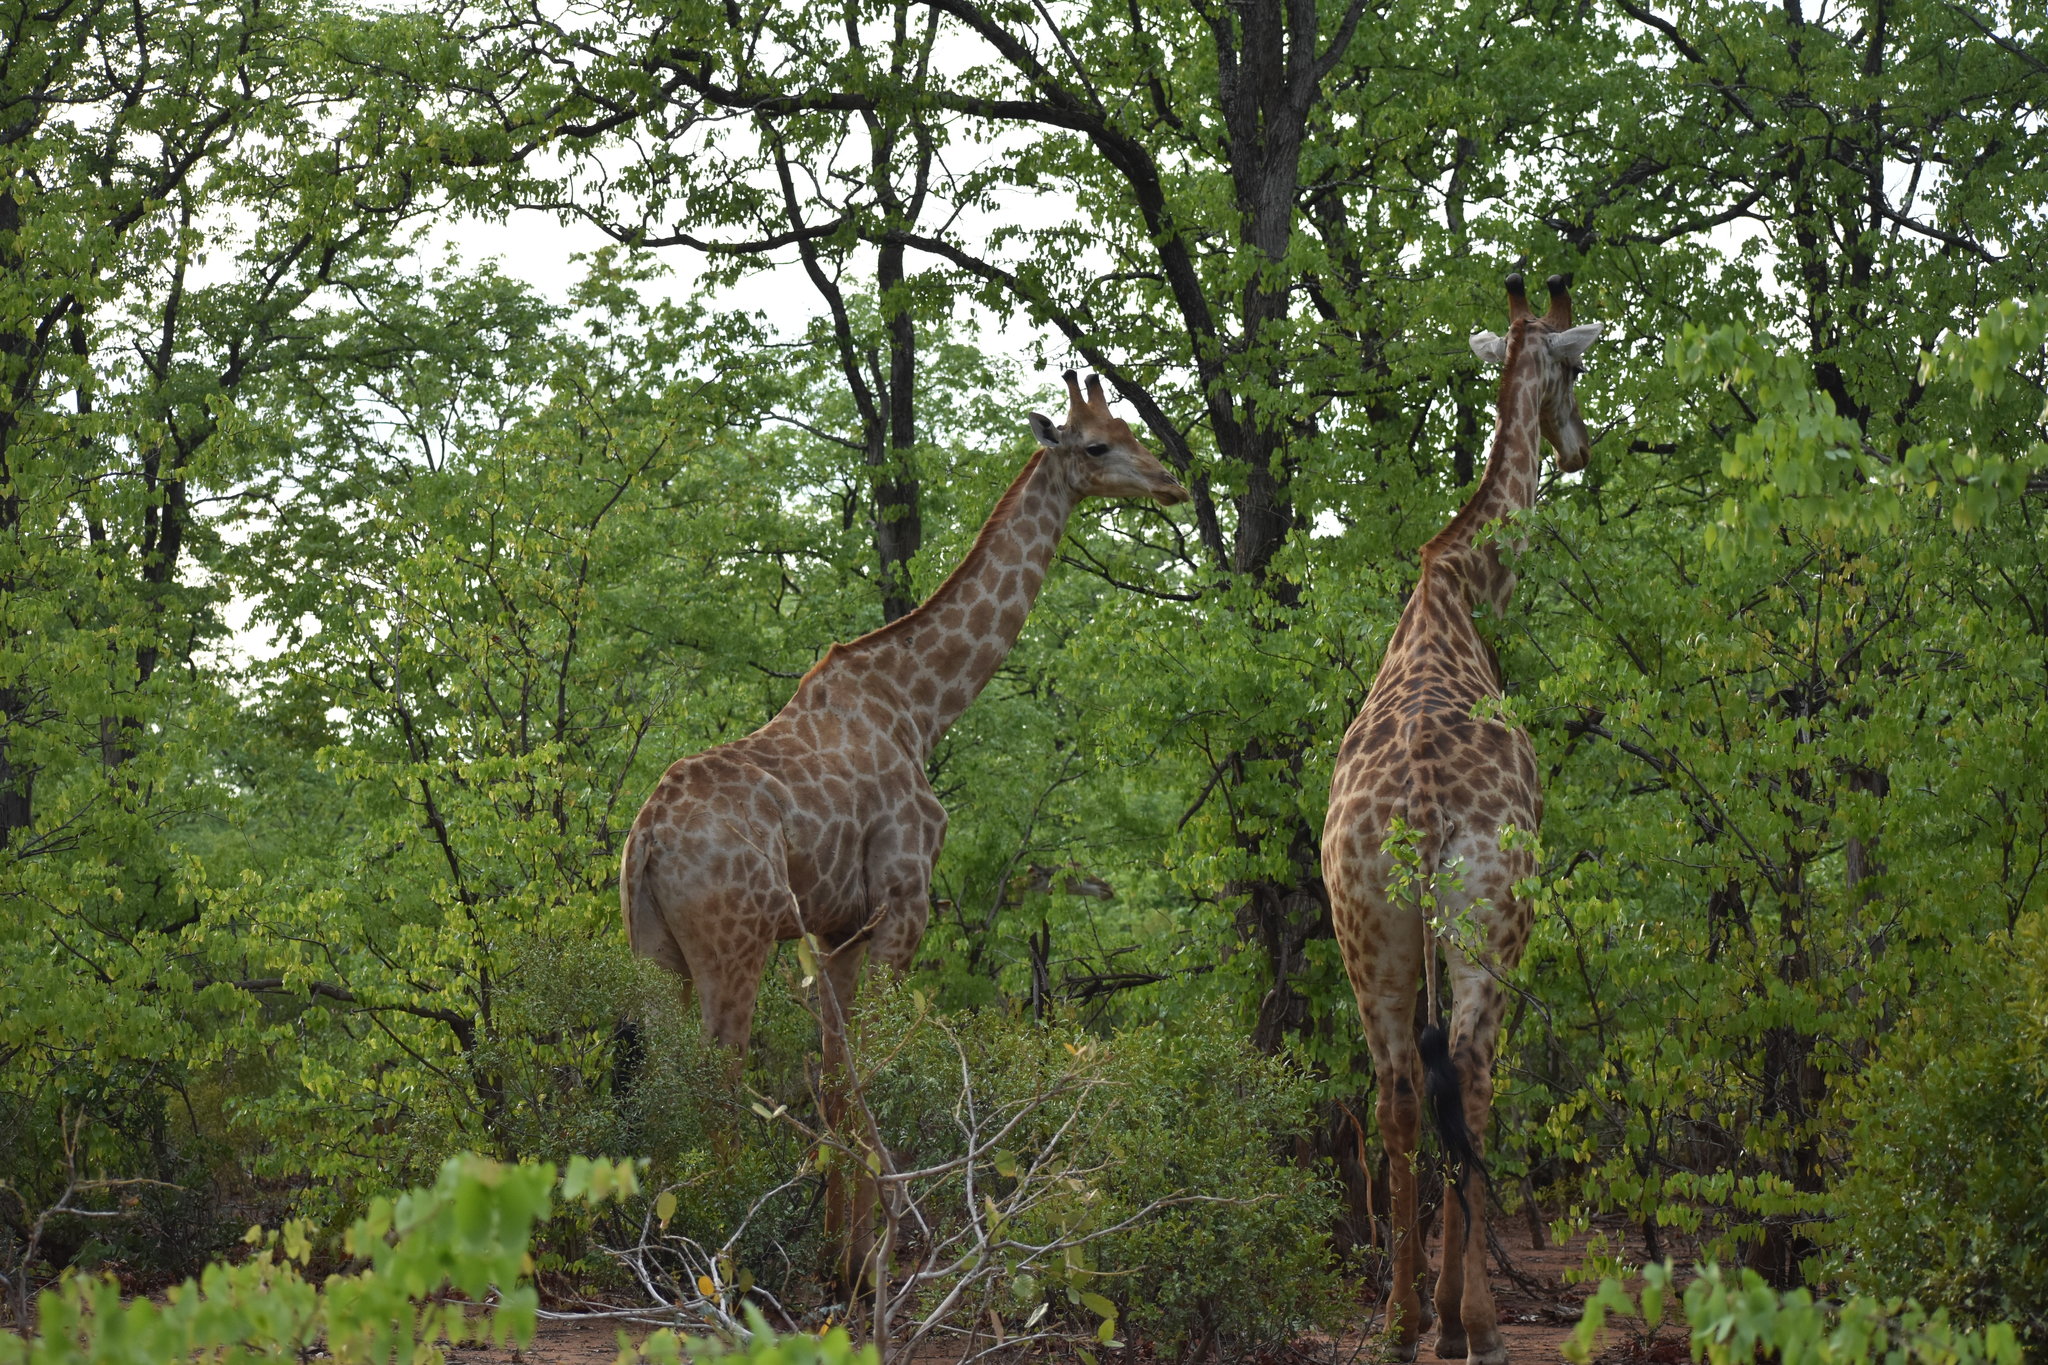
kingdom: Animalia
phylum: Chordata
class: Mammalia
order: Artiodactyla
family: Giraffidae
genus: Giraffa
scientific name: Giraffa giraffa
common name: Southern giraffe
